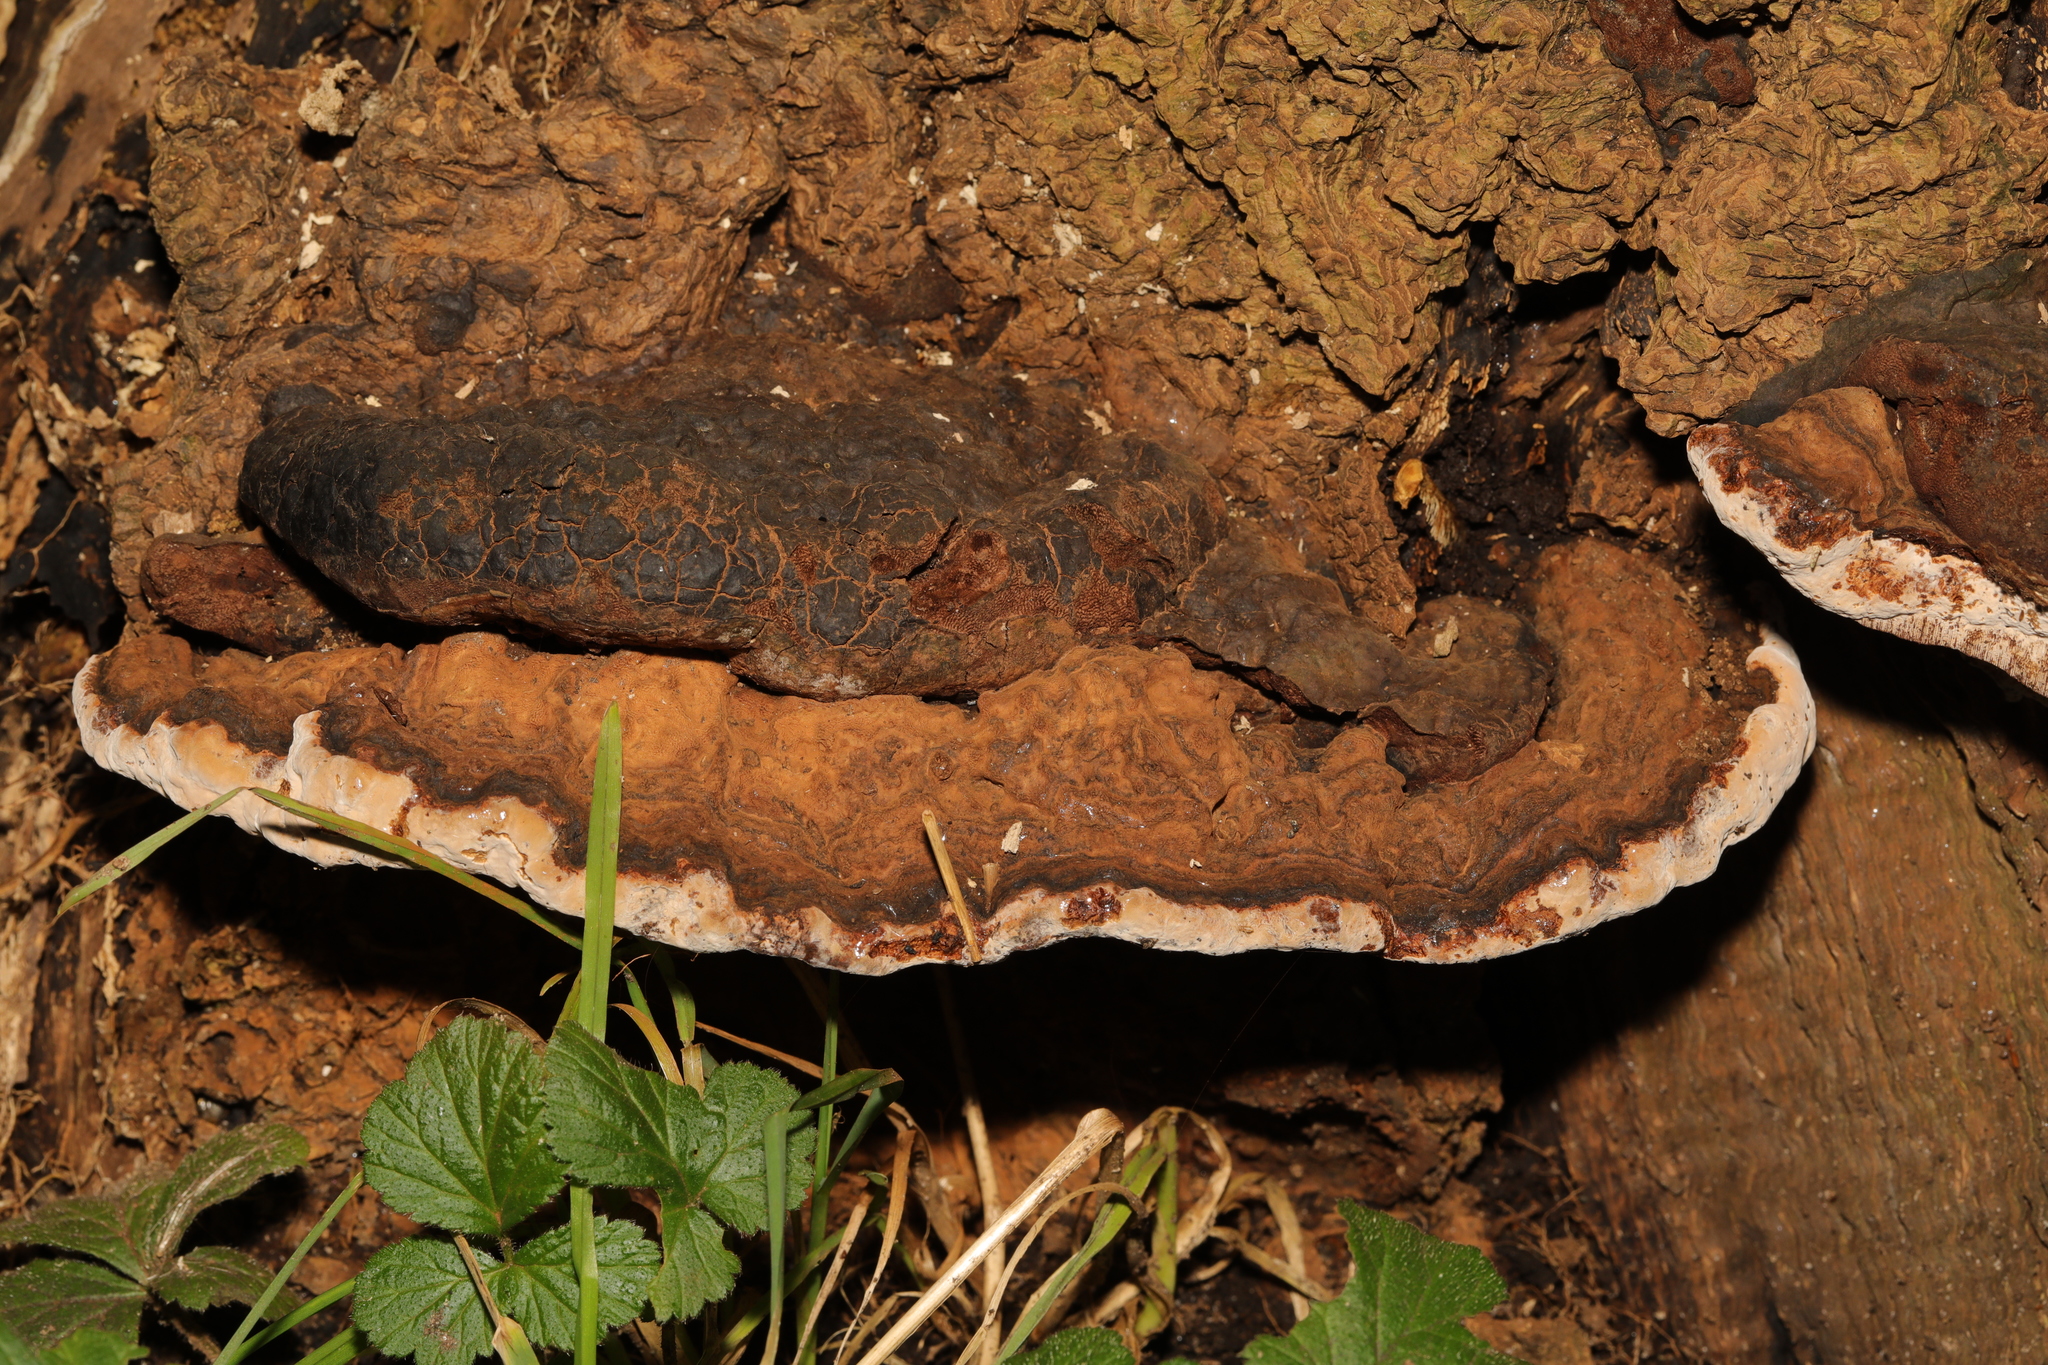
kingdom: Fungi
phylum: Basidiomycota
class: Agaricomycetes
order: Polyporales
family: Polyporaceae
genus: Ganoderma
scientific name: Ganoderma applanatum
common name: Artist's bracket
